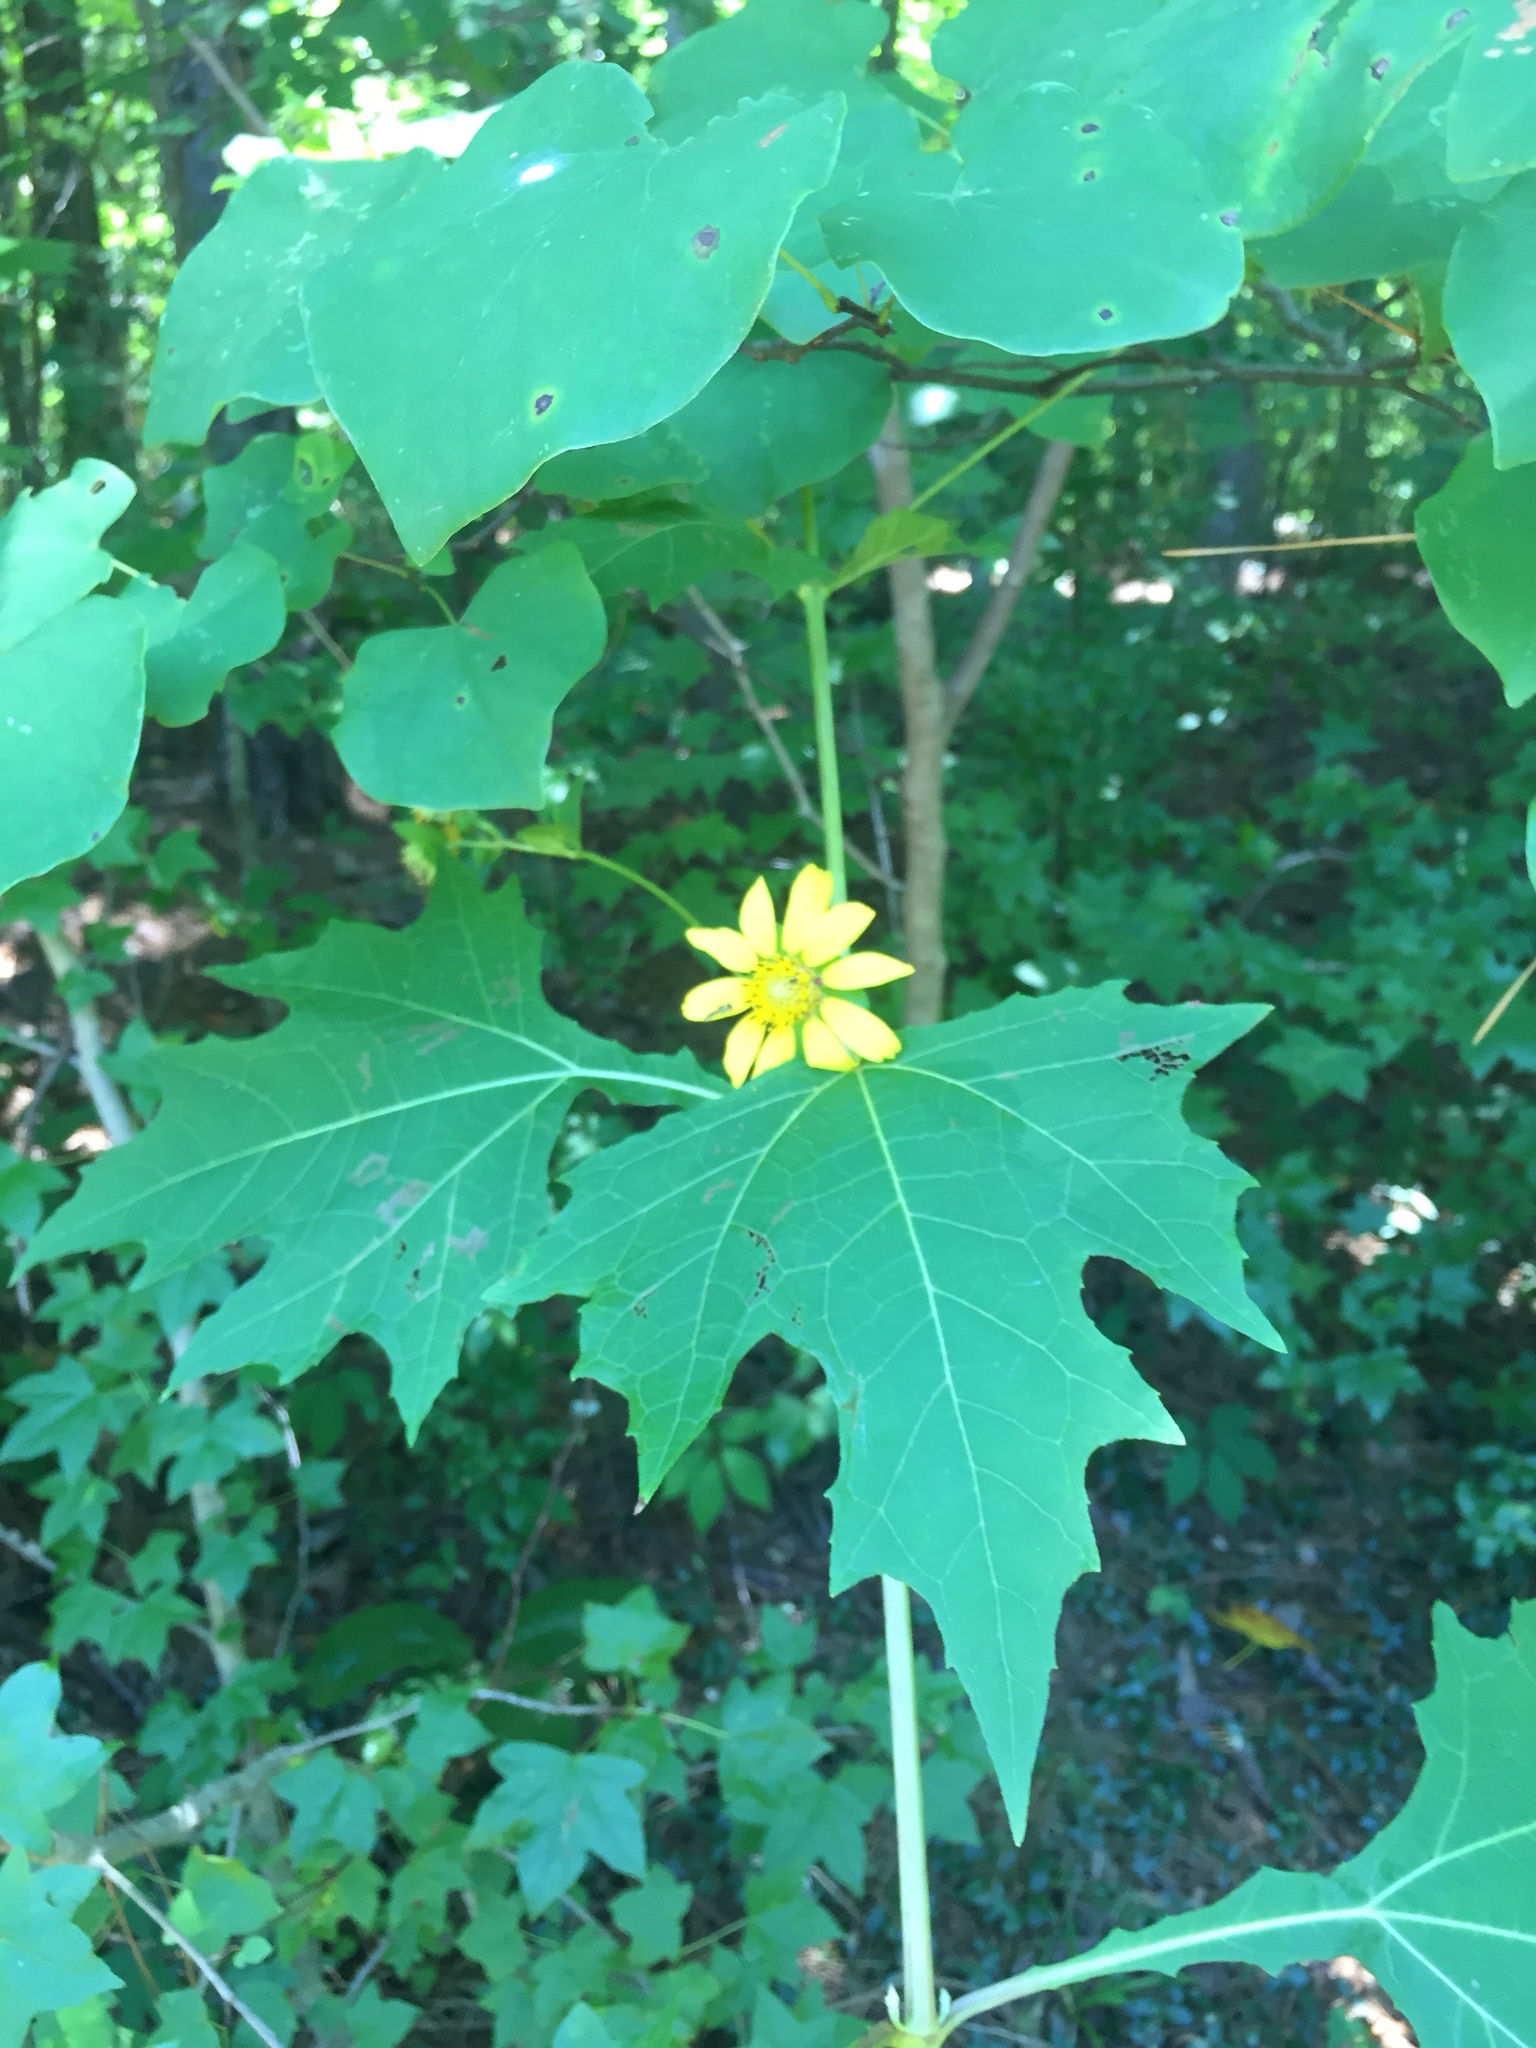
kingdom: Plantae
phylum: Tracheophyta
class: Magnoliopsida
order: Asterales
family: Asteraceae
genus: Smallanthus
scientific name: Smallanthus uvedalia
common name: Bear's-foot
